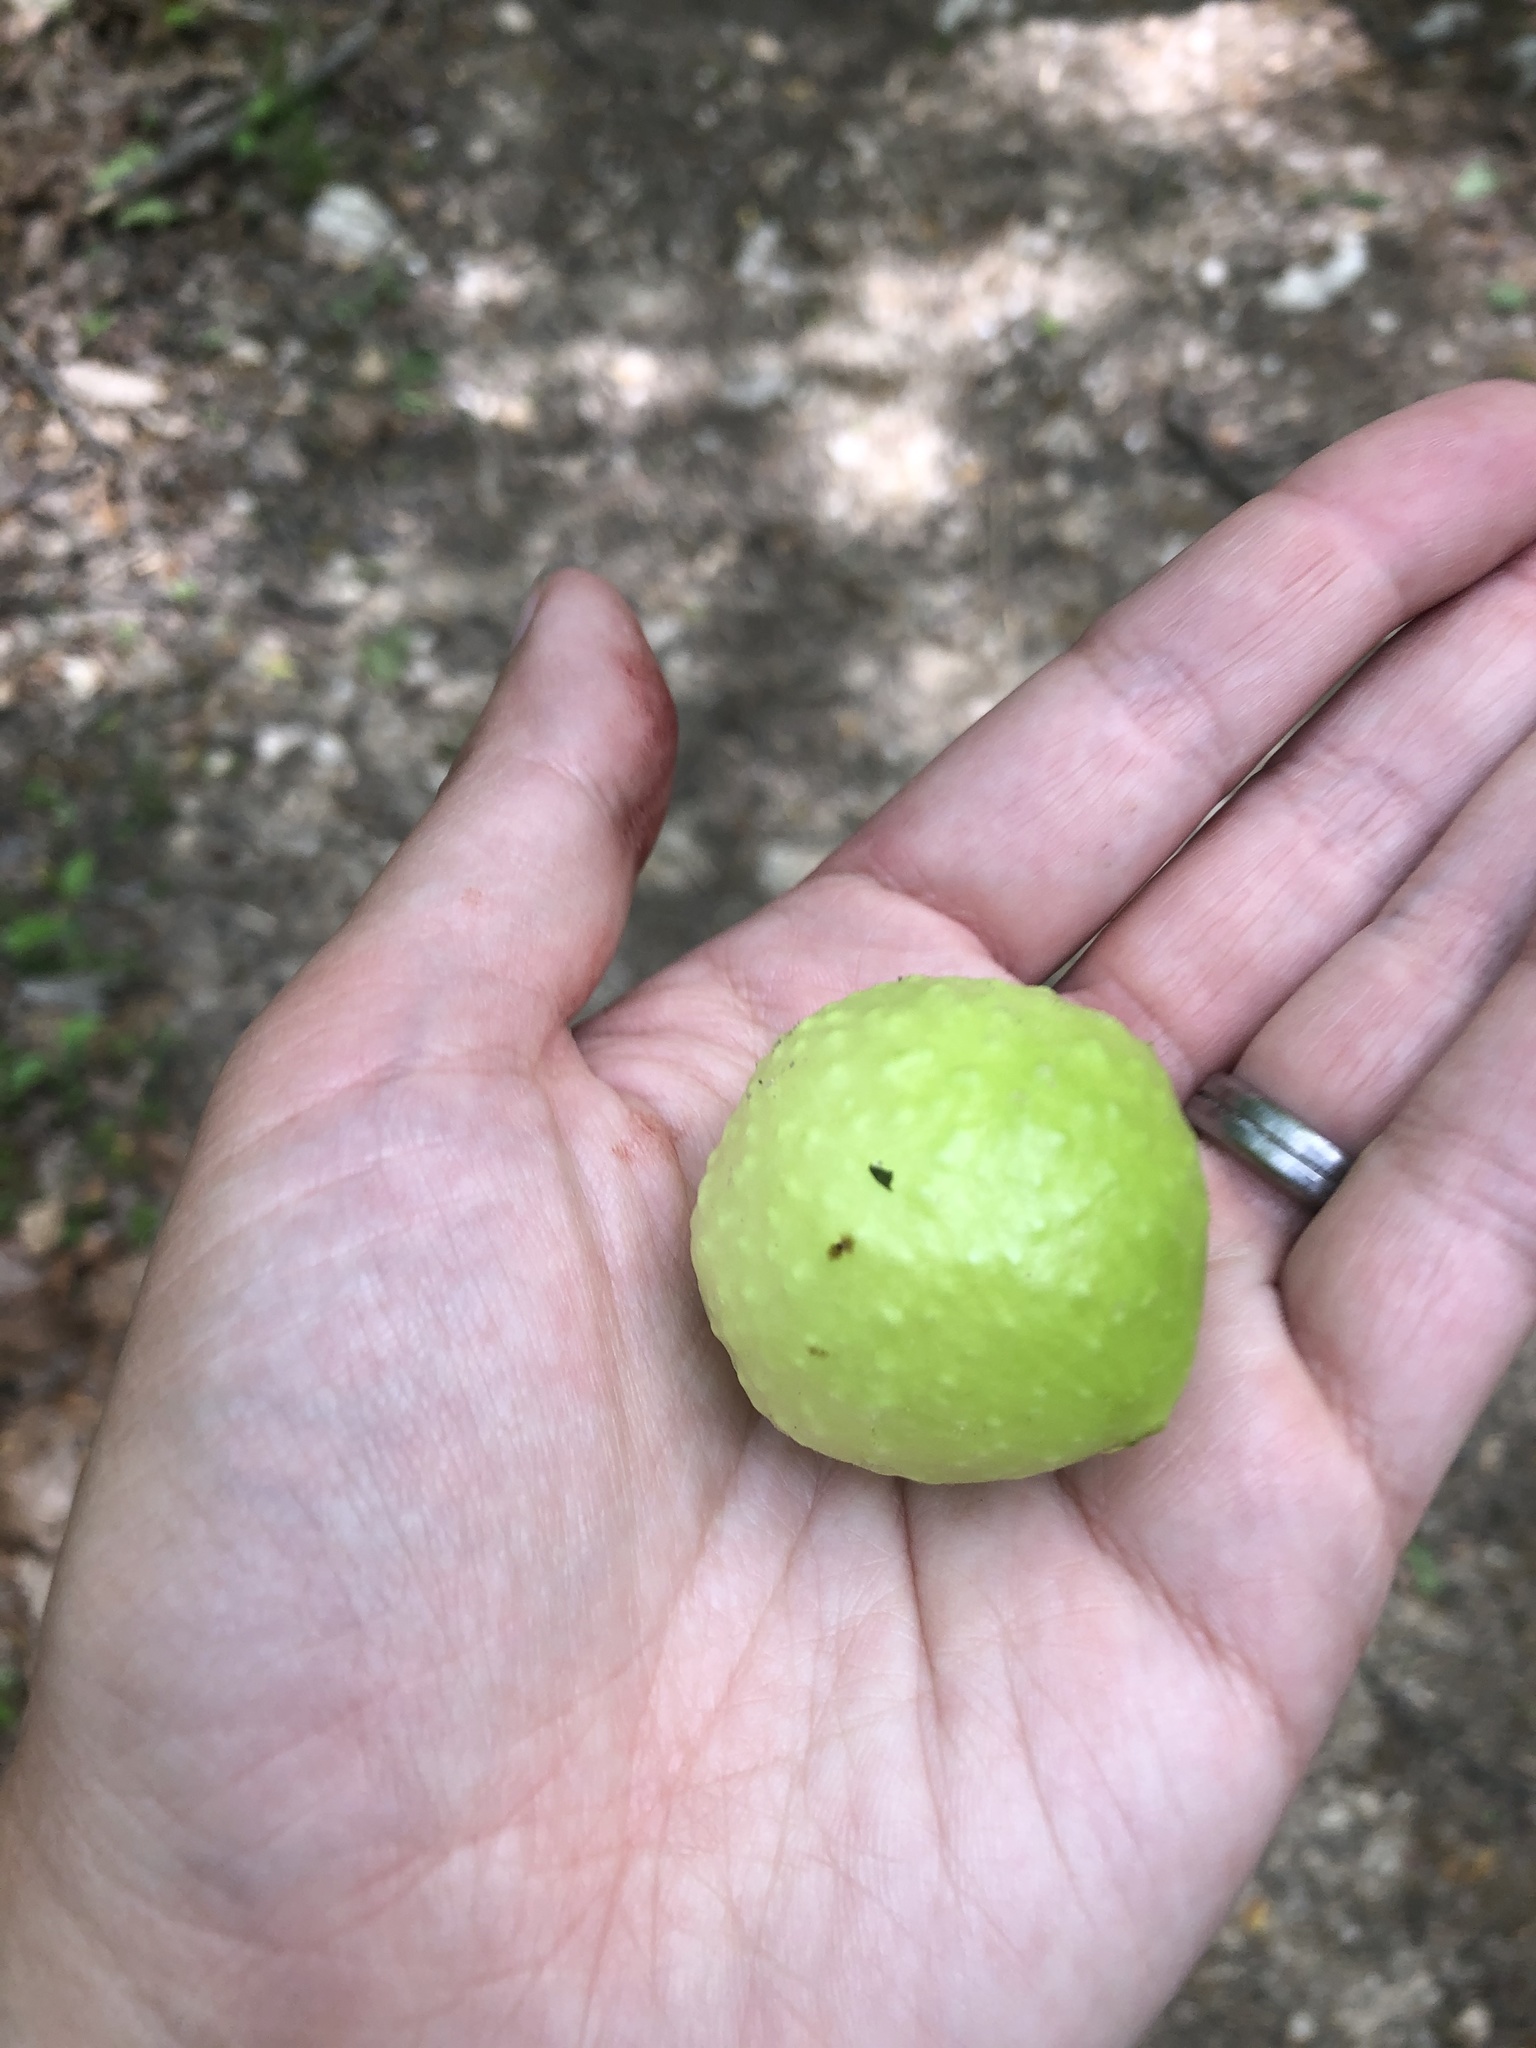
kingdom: Animalia
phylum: Arthropoda
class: Insecta
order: Hymenoptera
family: Cynipidae
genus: Amphibolips
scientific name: Amphibolips
